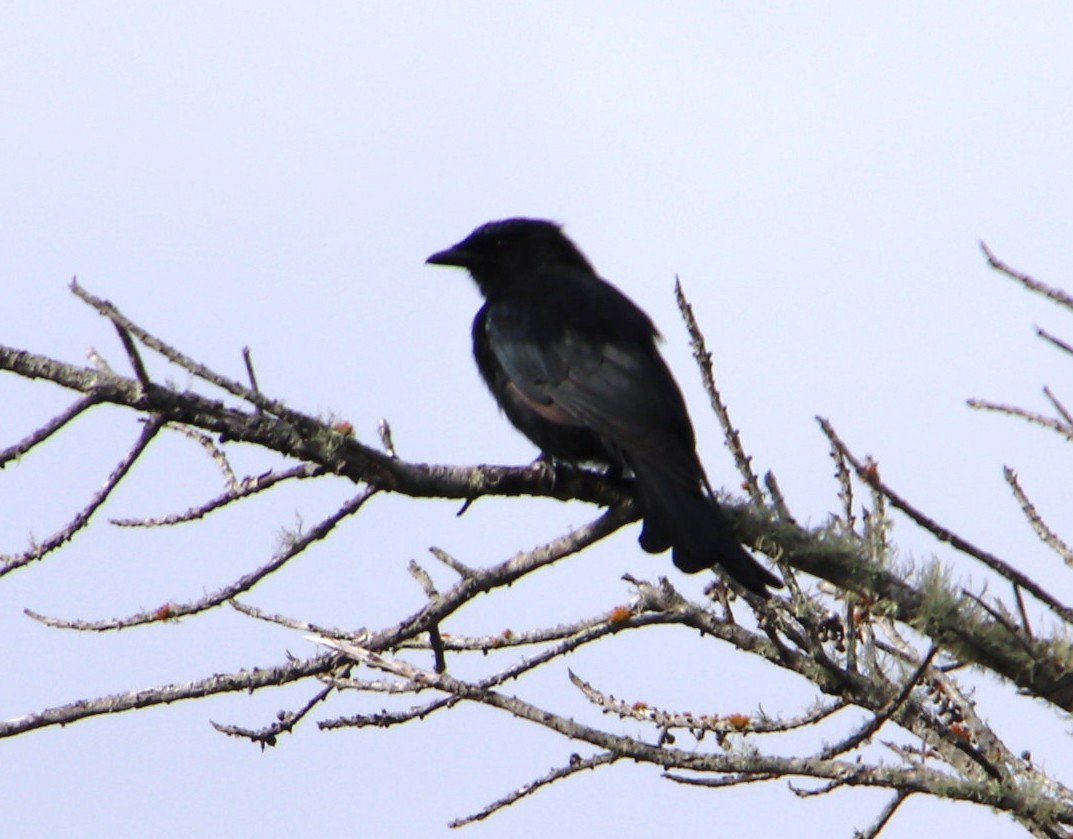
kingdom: Animalia
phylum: Chordata
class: Aves
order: Passeriformes
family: Dicruridae
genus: Dicrurus
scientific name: Dicrurus adsimilis
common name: Fork-tailed drongo
